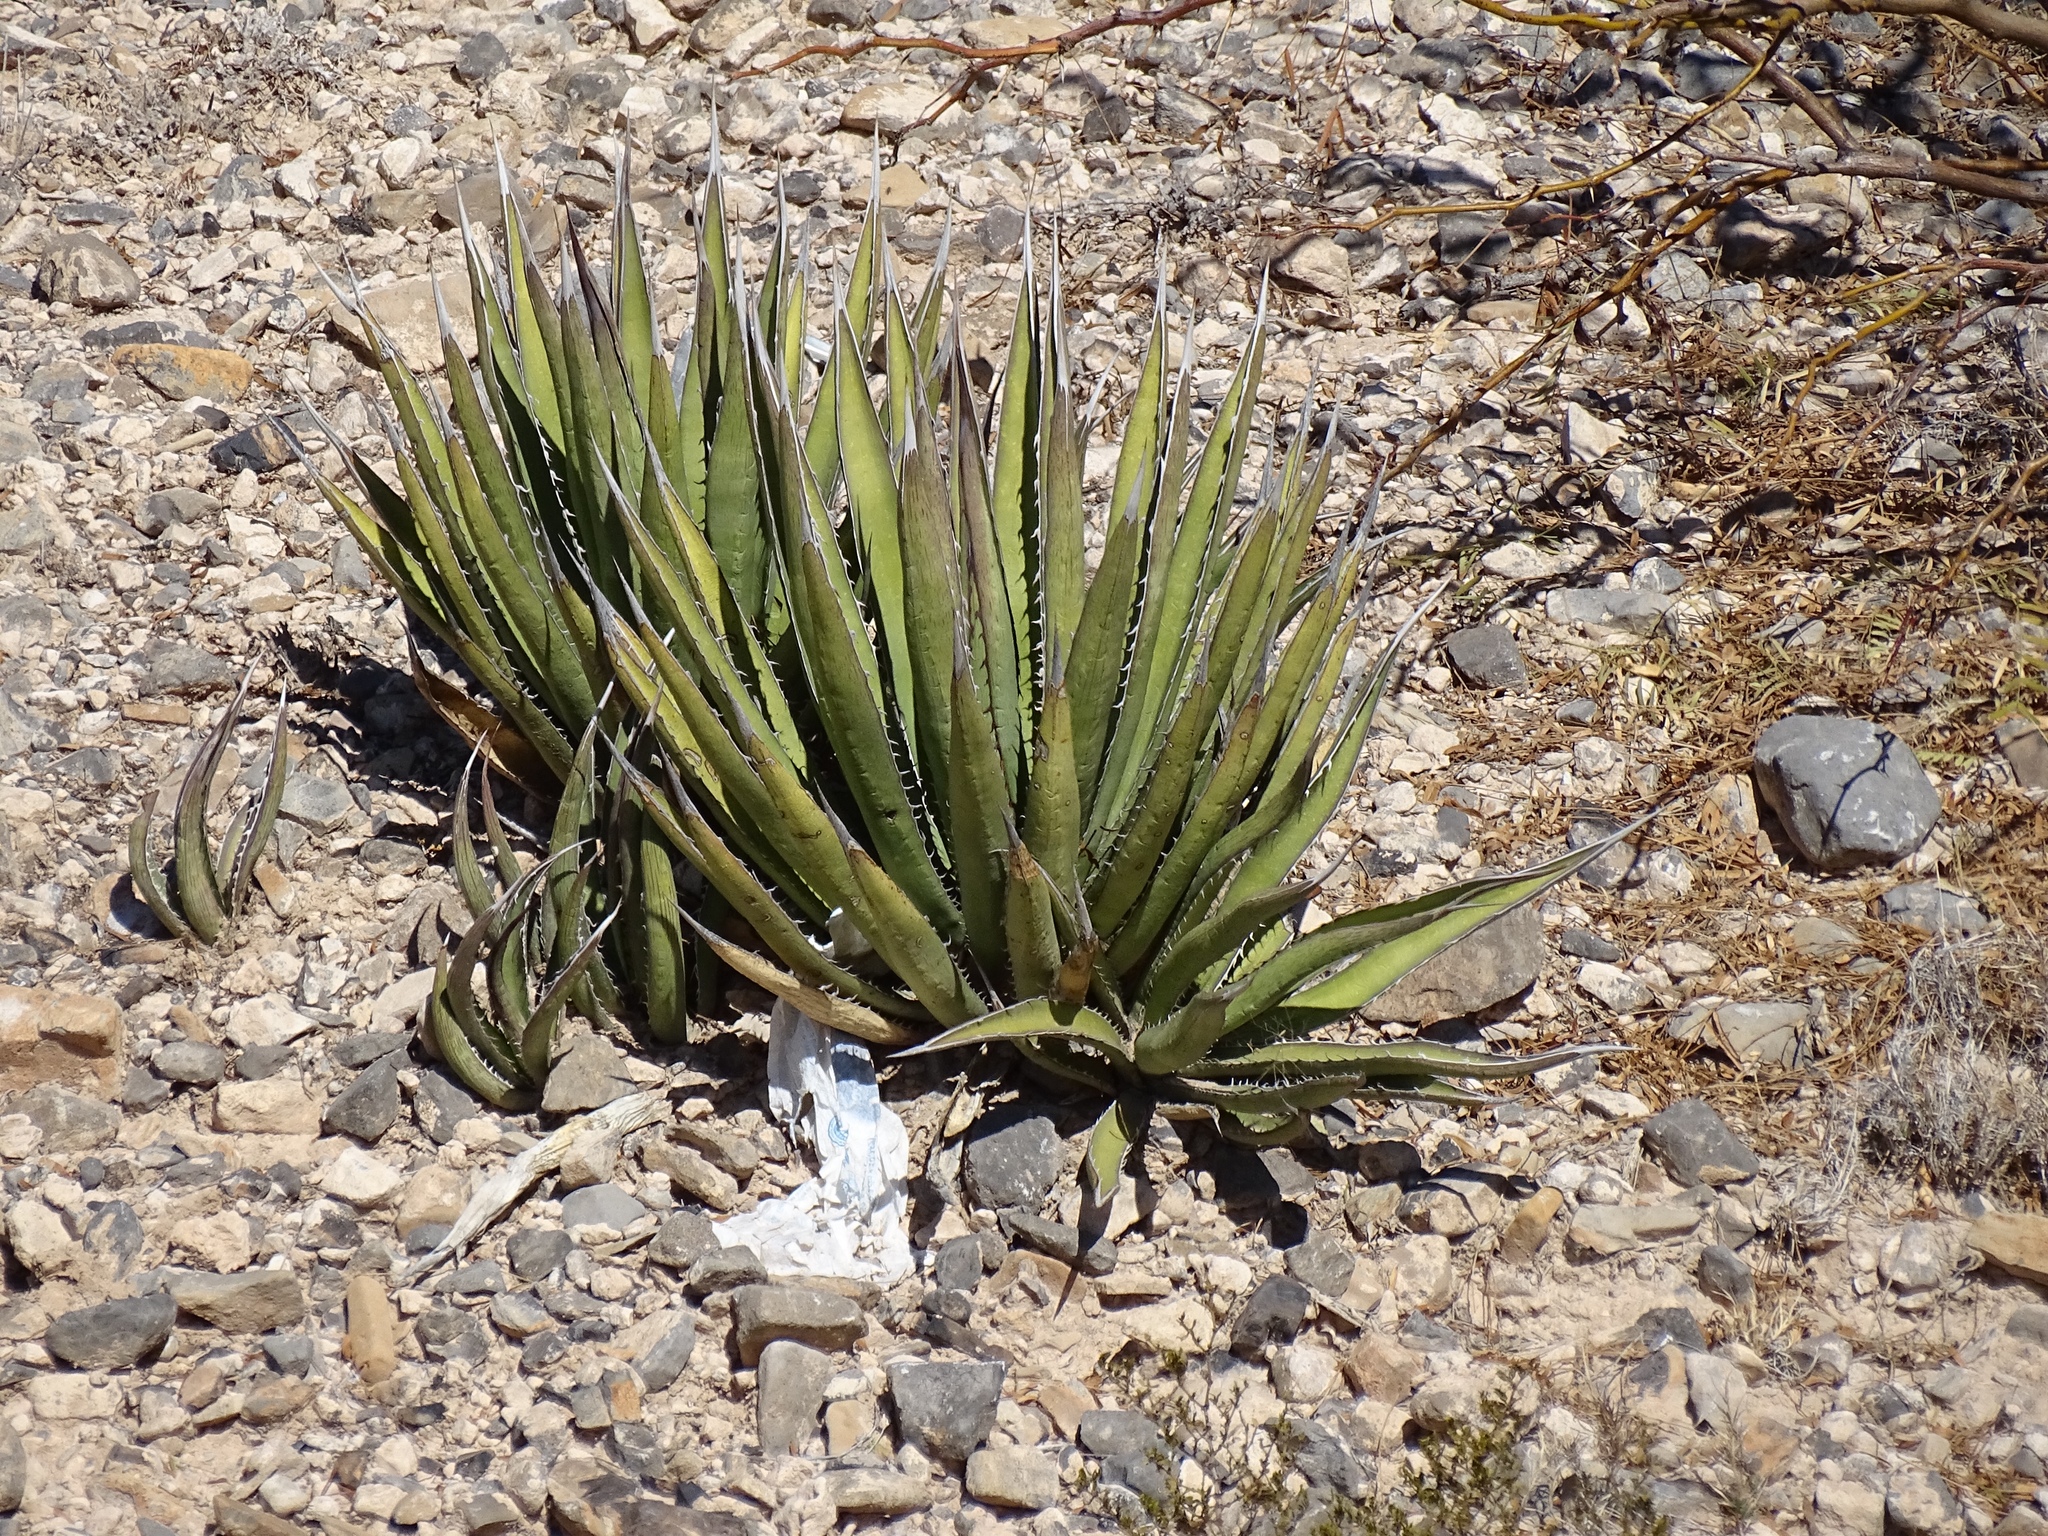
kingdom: Plantae
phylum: Tracheophyta
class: Liliopsida
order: Asparagales
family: Asparagaceae
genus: Agave
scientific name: Agave lechuguilla
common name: Lecheguilla agave
